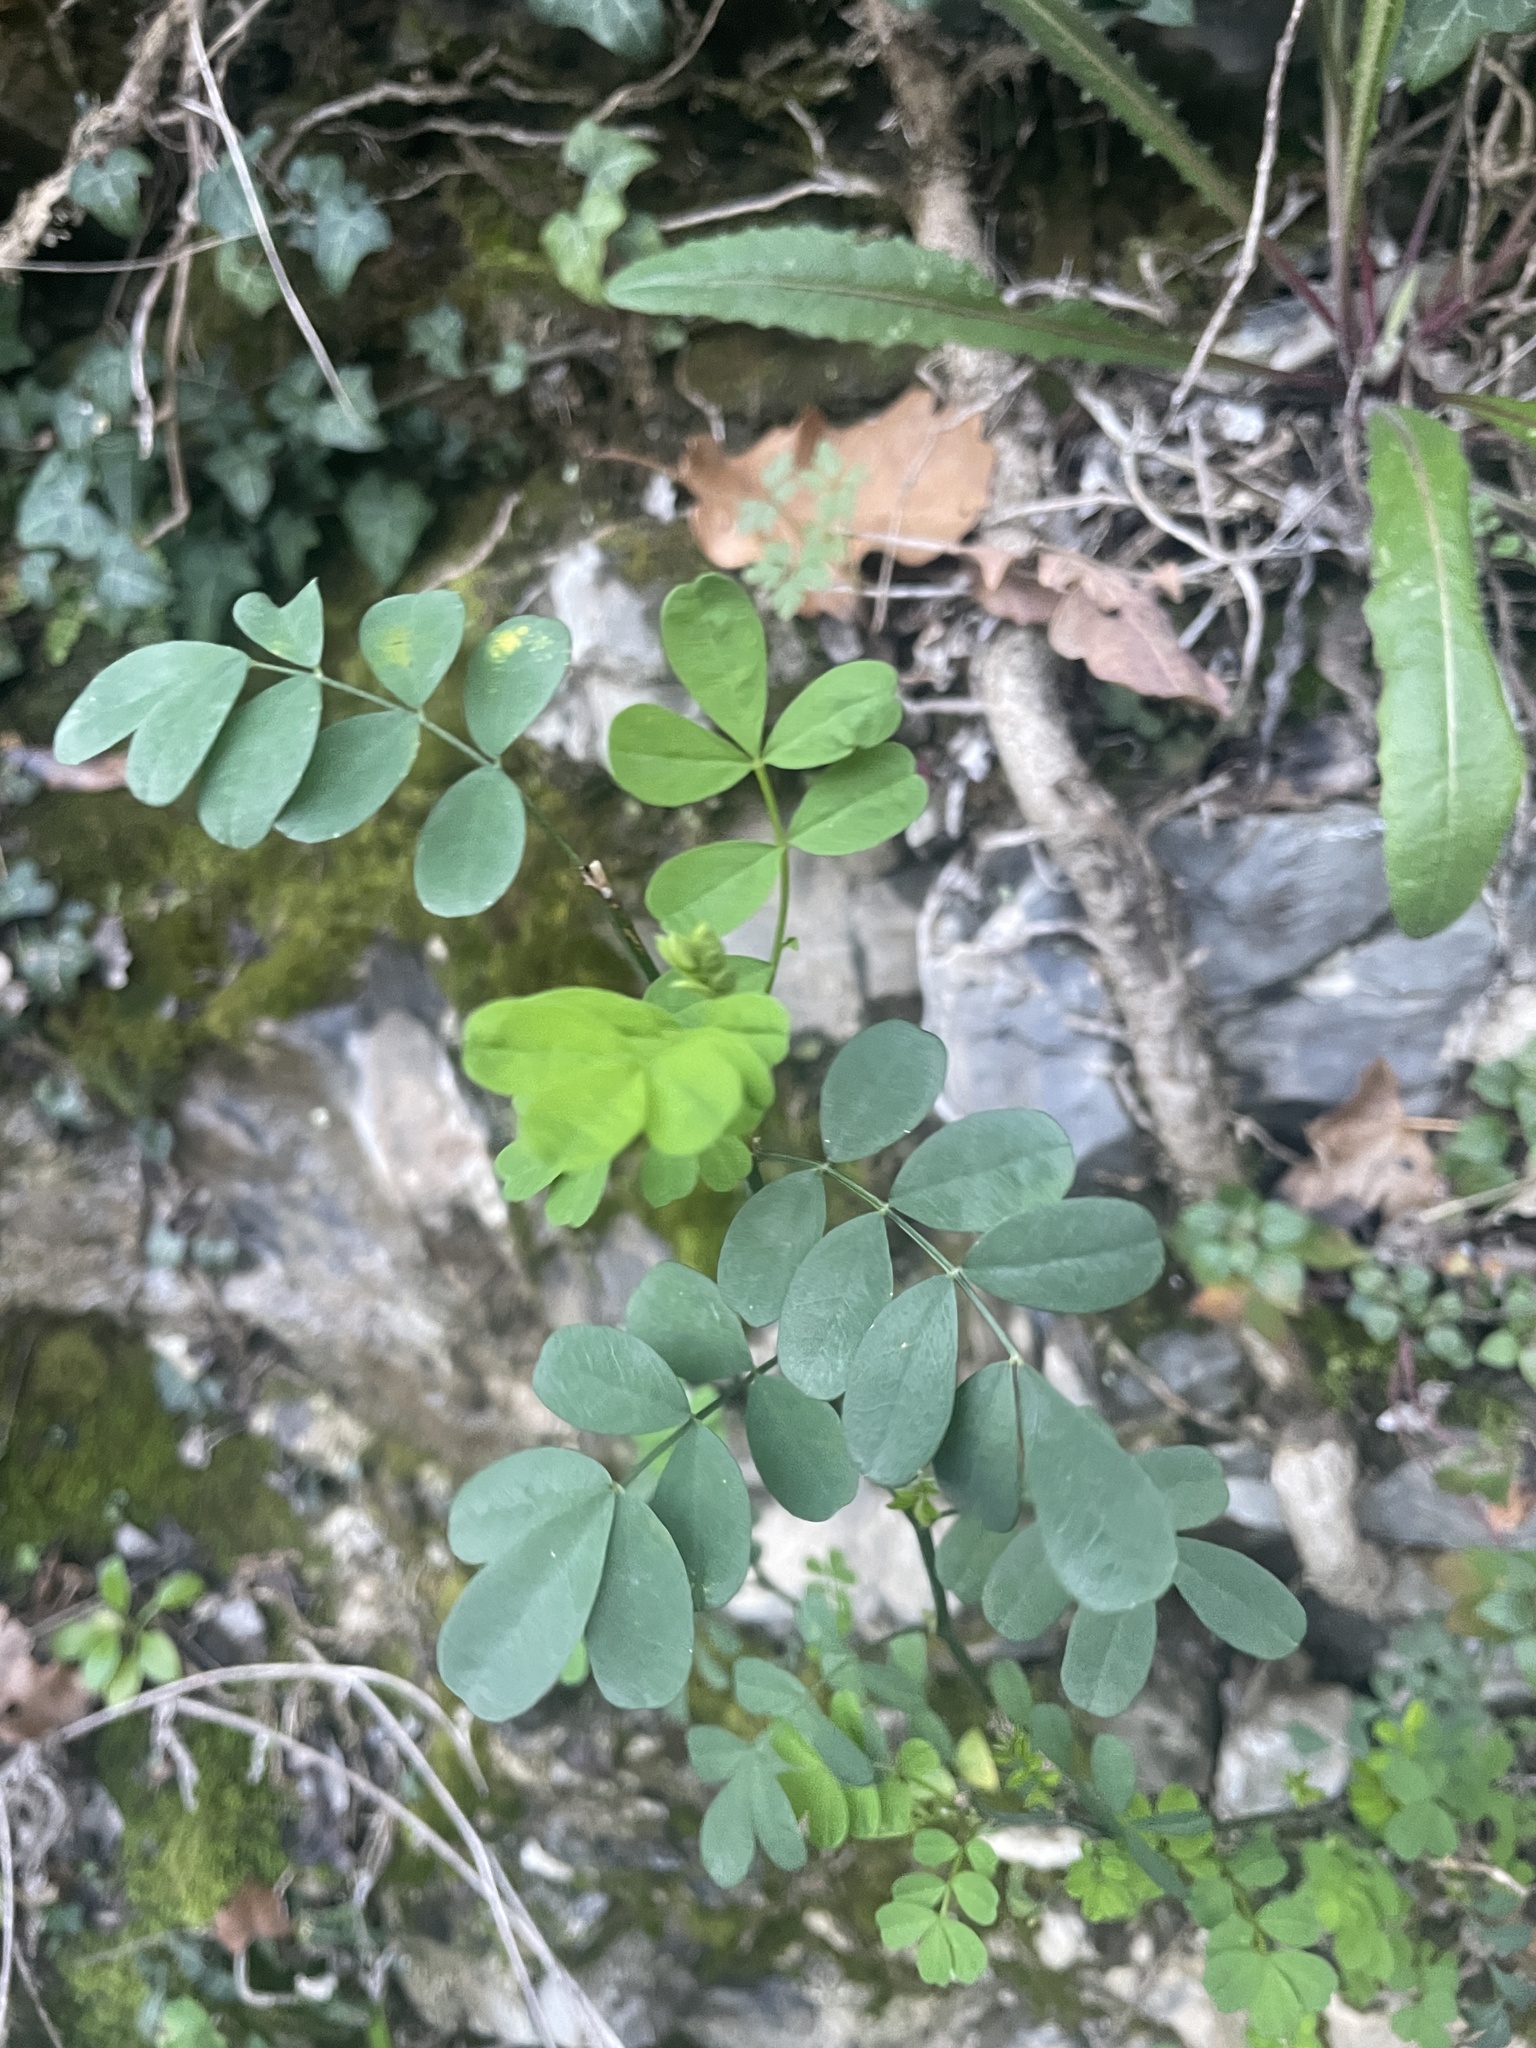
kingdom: Plantae
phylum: Tracheophyta
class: Magnoliopsida
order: Fabales
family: Fabaceae
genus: Hippocrepis
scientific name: Hippocrepis emerus
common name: Scorpion senna
